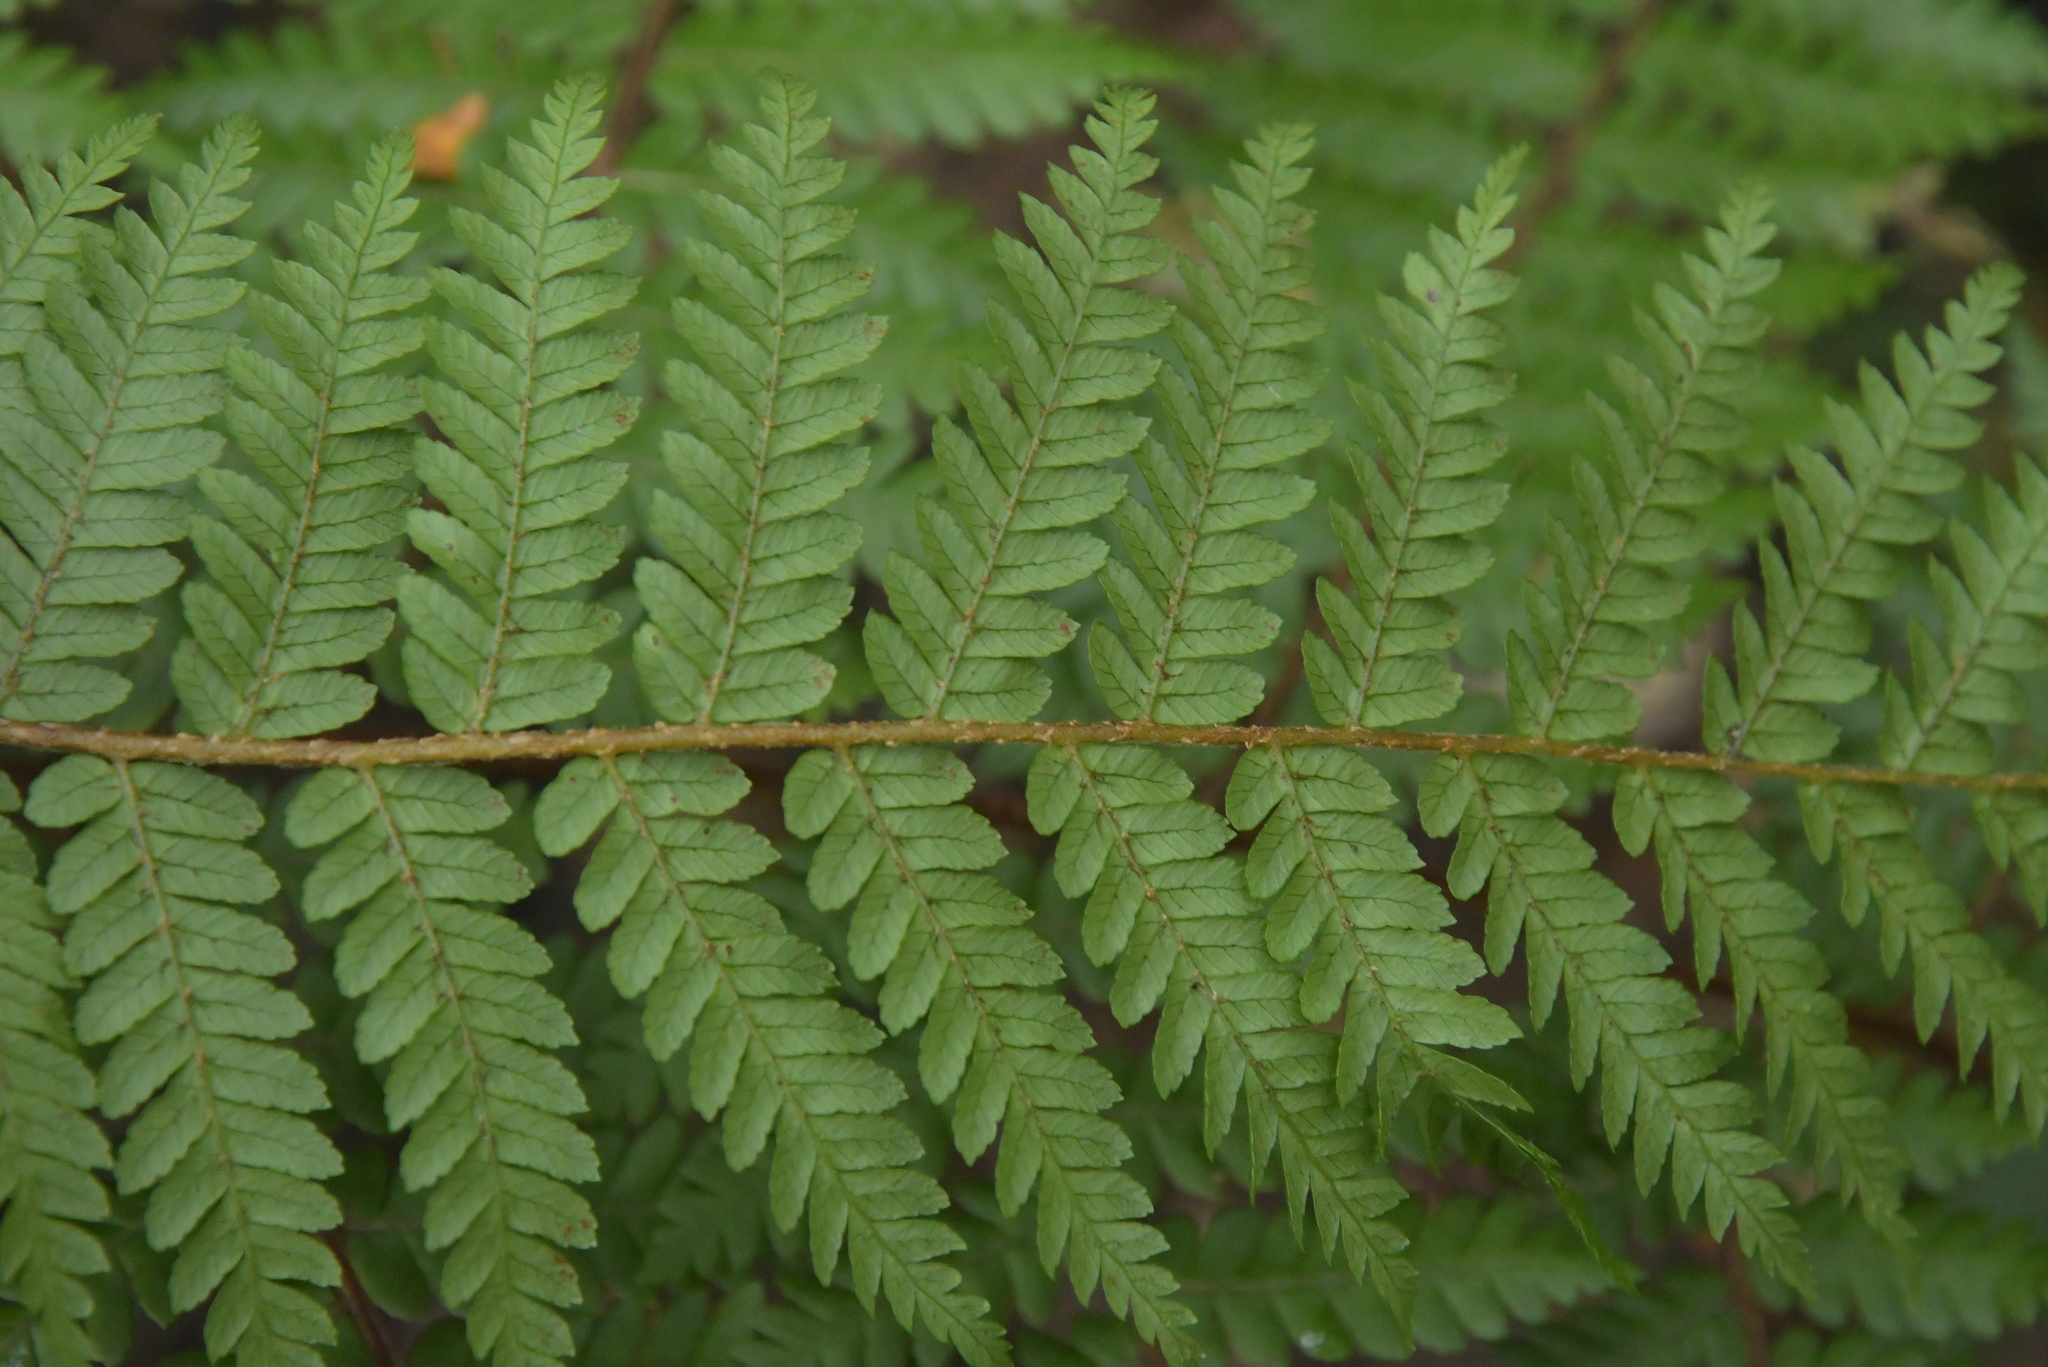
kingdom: Plantae
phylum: Tracheophyta
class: Polypodiopsida
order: Cyatheales
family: Cyatheaceae
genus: Alsophila
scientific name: Alsophila colensoi
